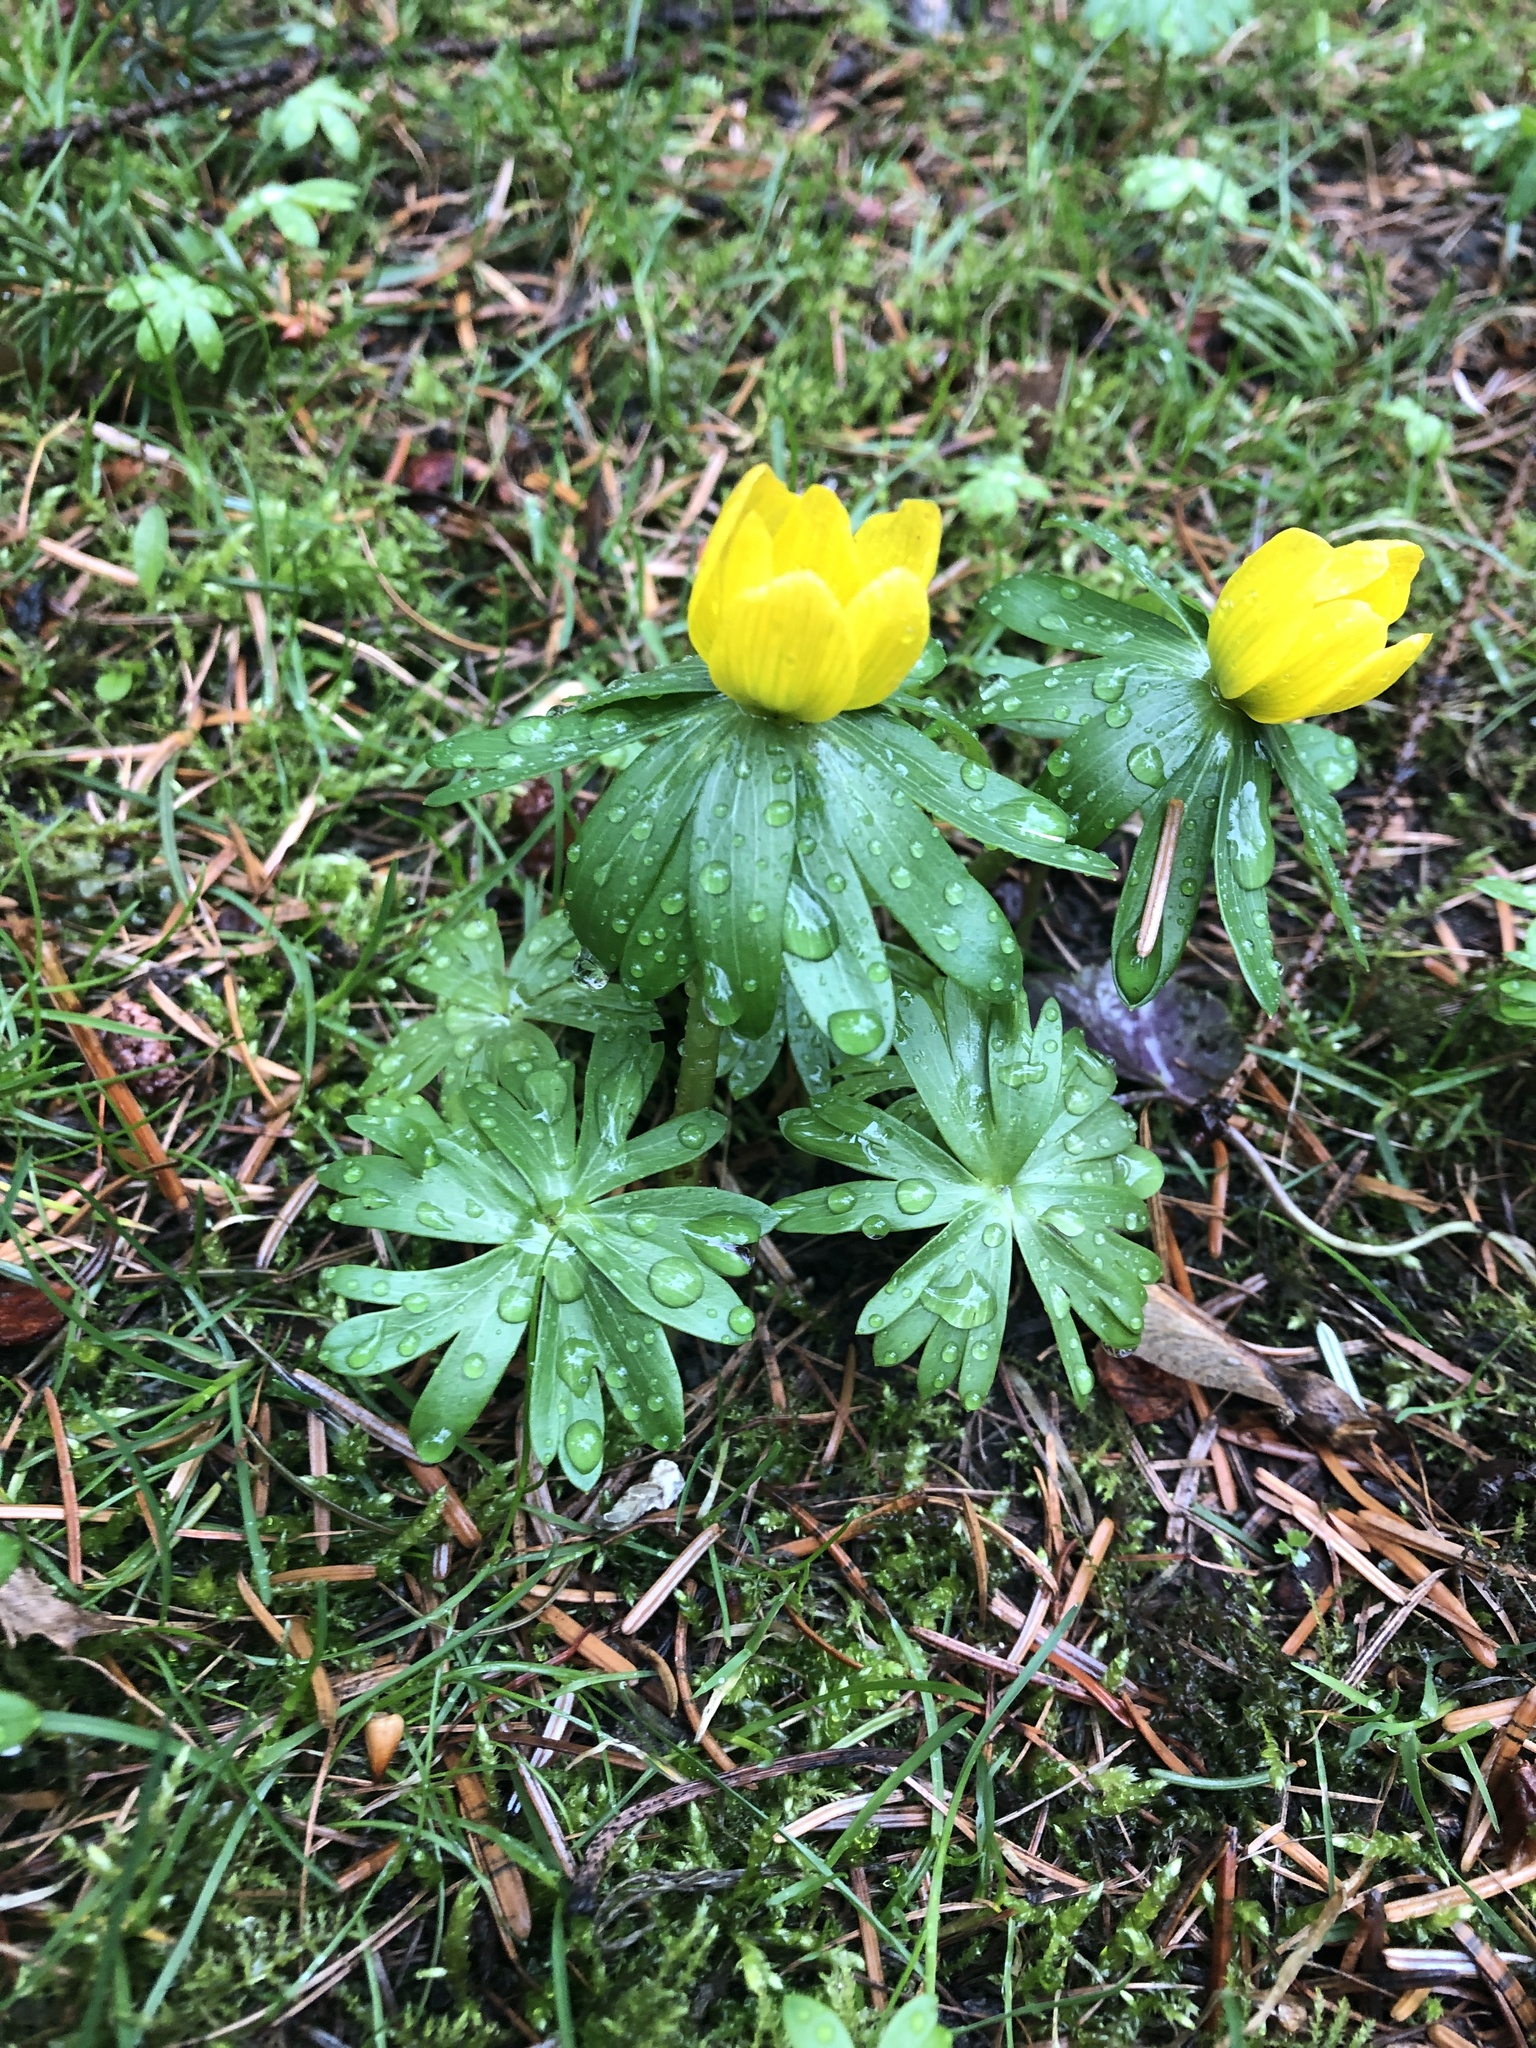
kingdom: Plantae
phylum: Tracheophyta
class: Magnoliopsida
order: Ranunculales
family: Ranunculaceae
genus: Eranthis
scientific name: Eranthis hyemalis
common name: Winter aconite
